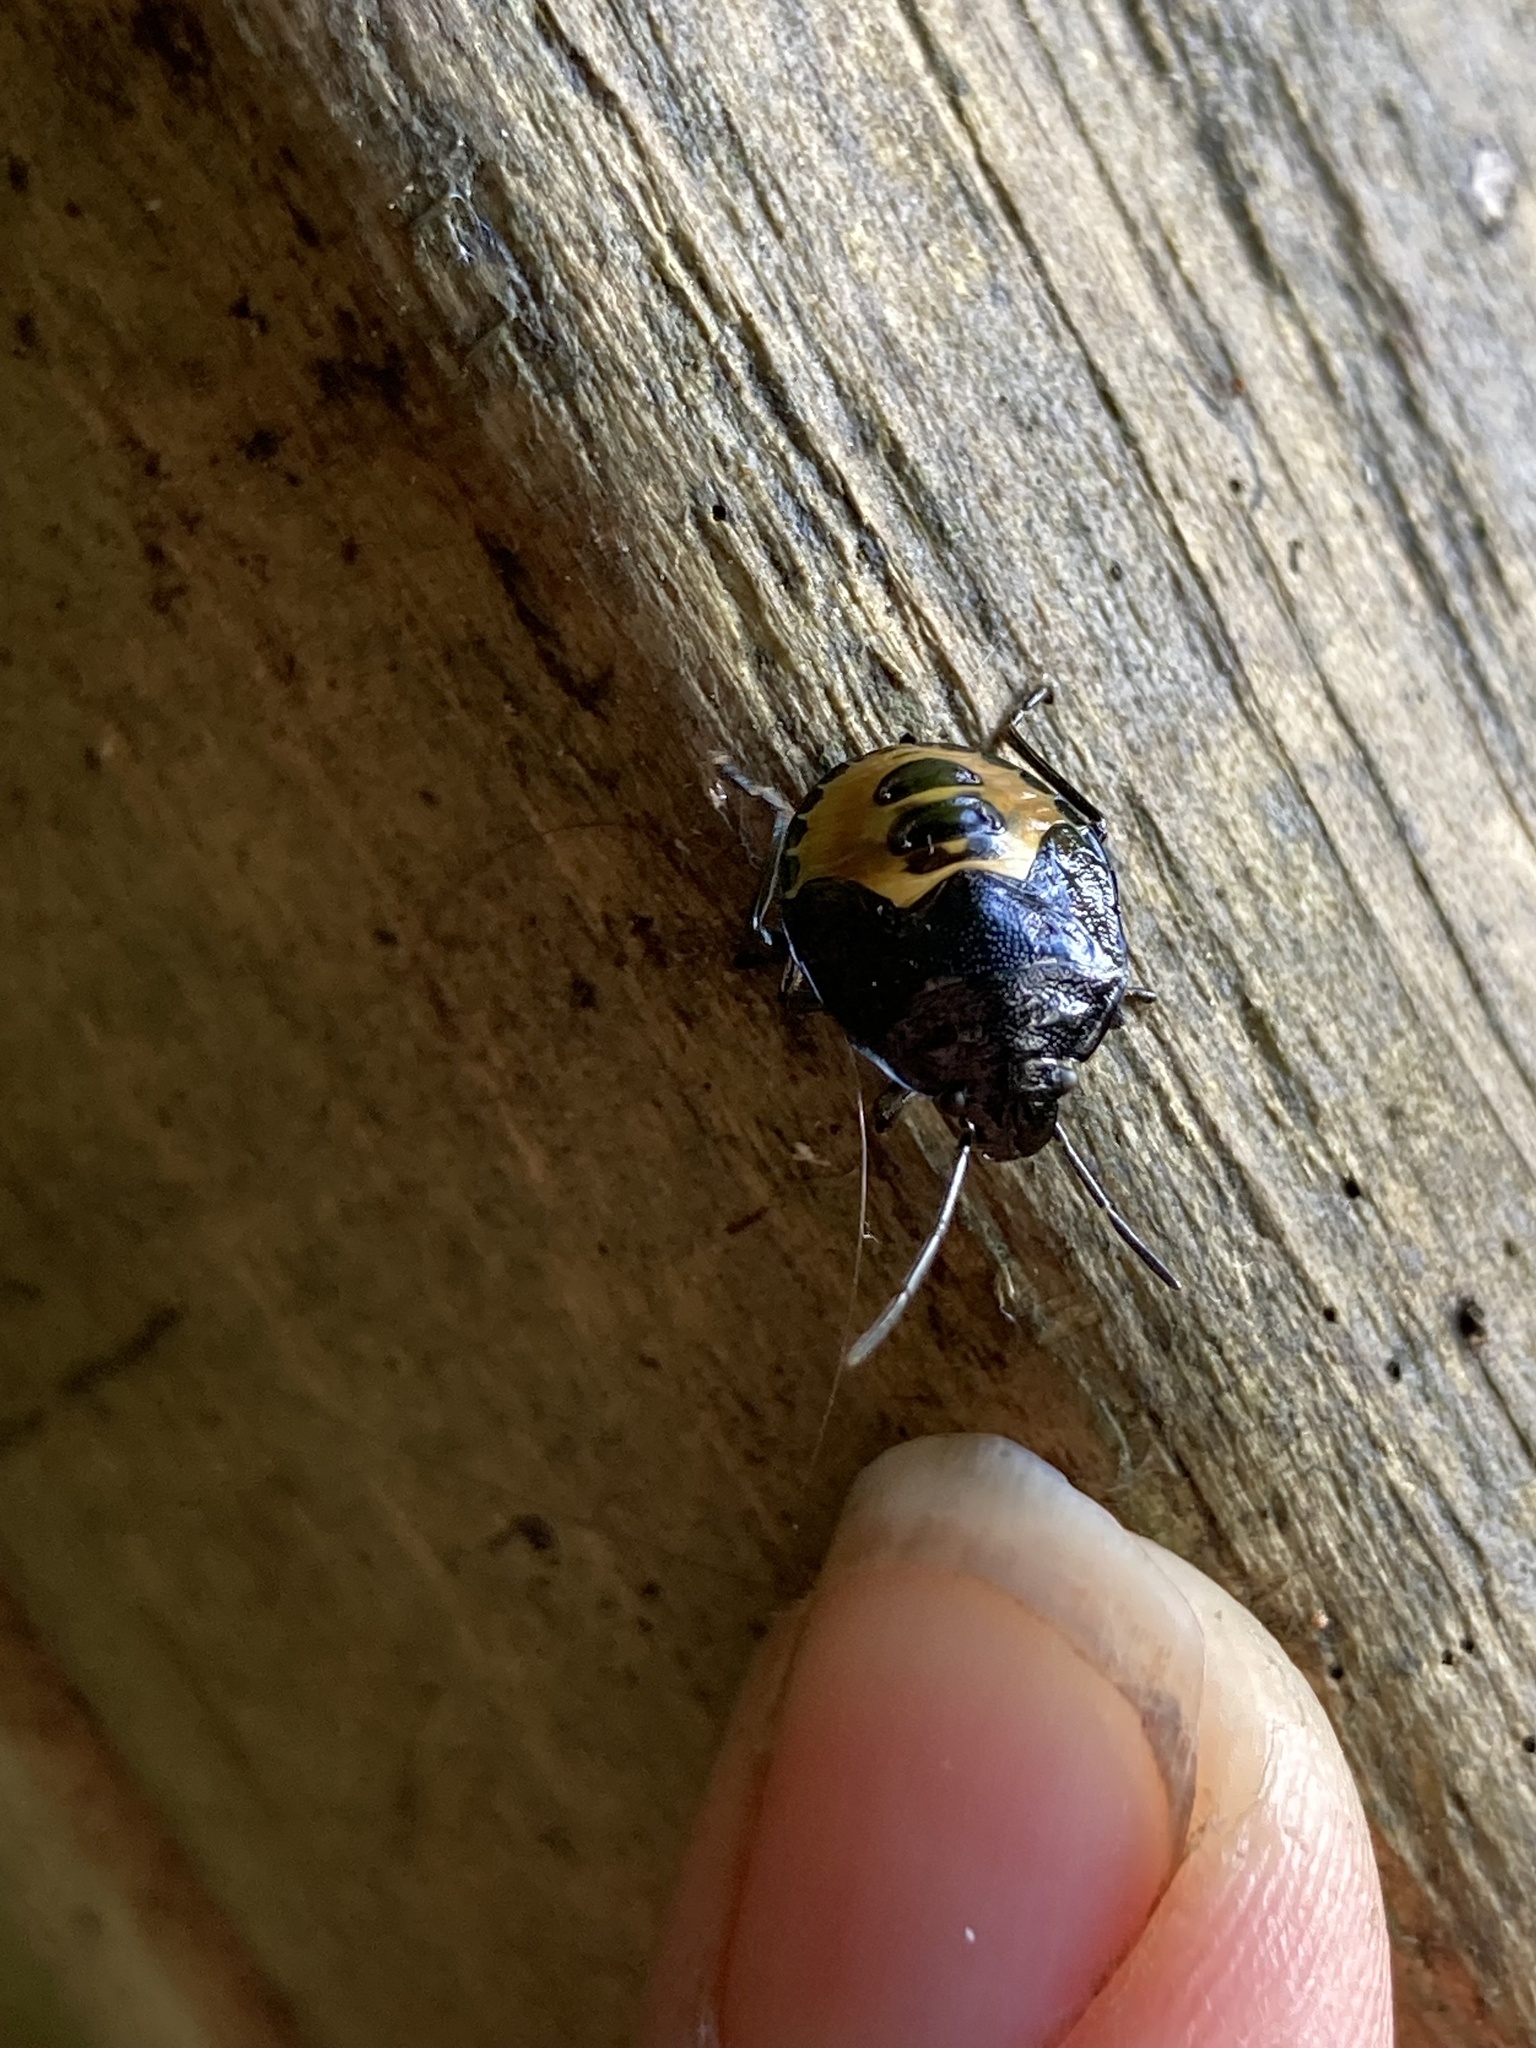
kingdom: Animalia
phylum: Arthropoda
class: Insecta
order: Hemiptera
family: Pentatomidae
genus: Glaucias
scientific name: Glaucias amyota
